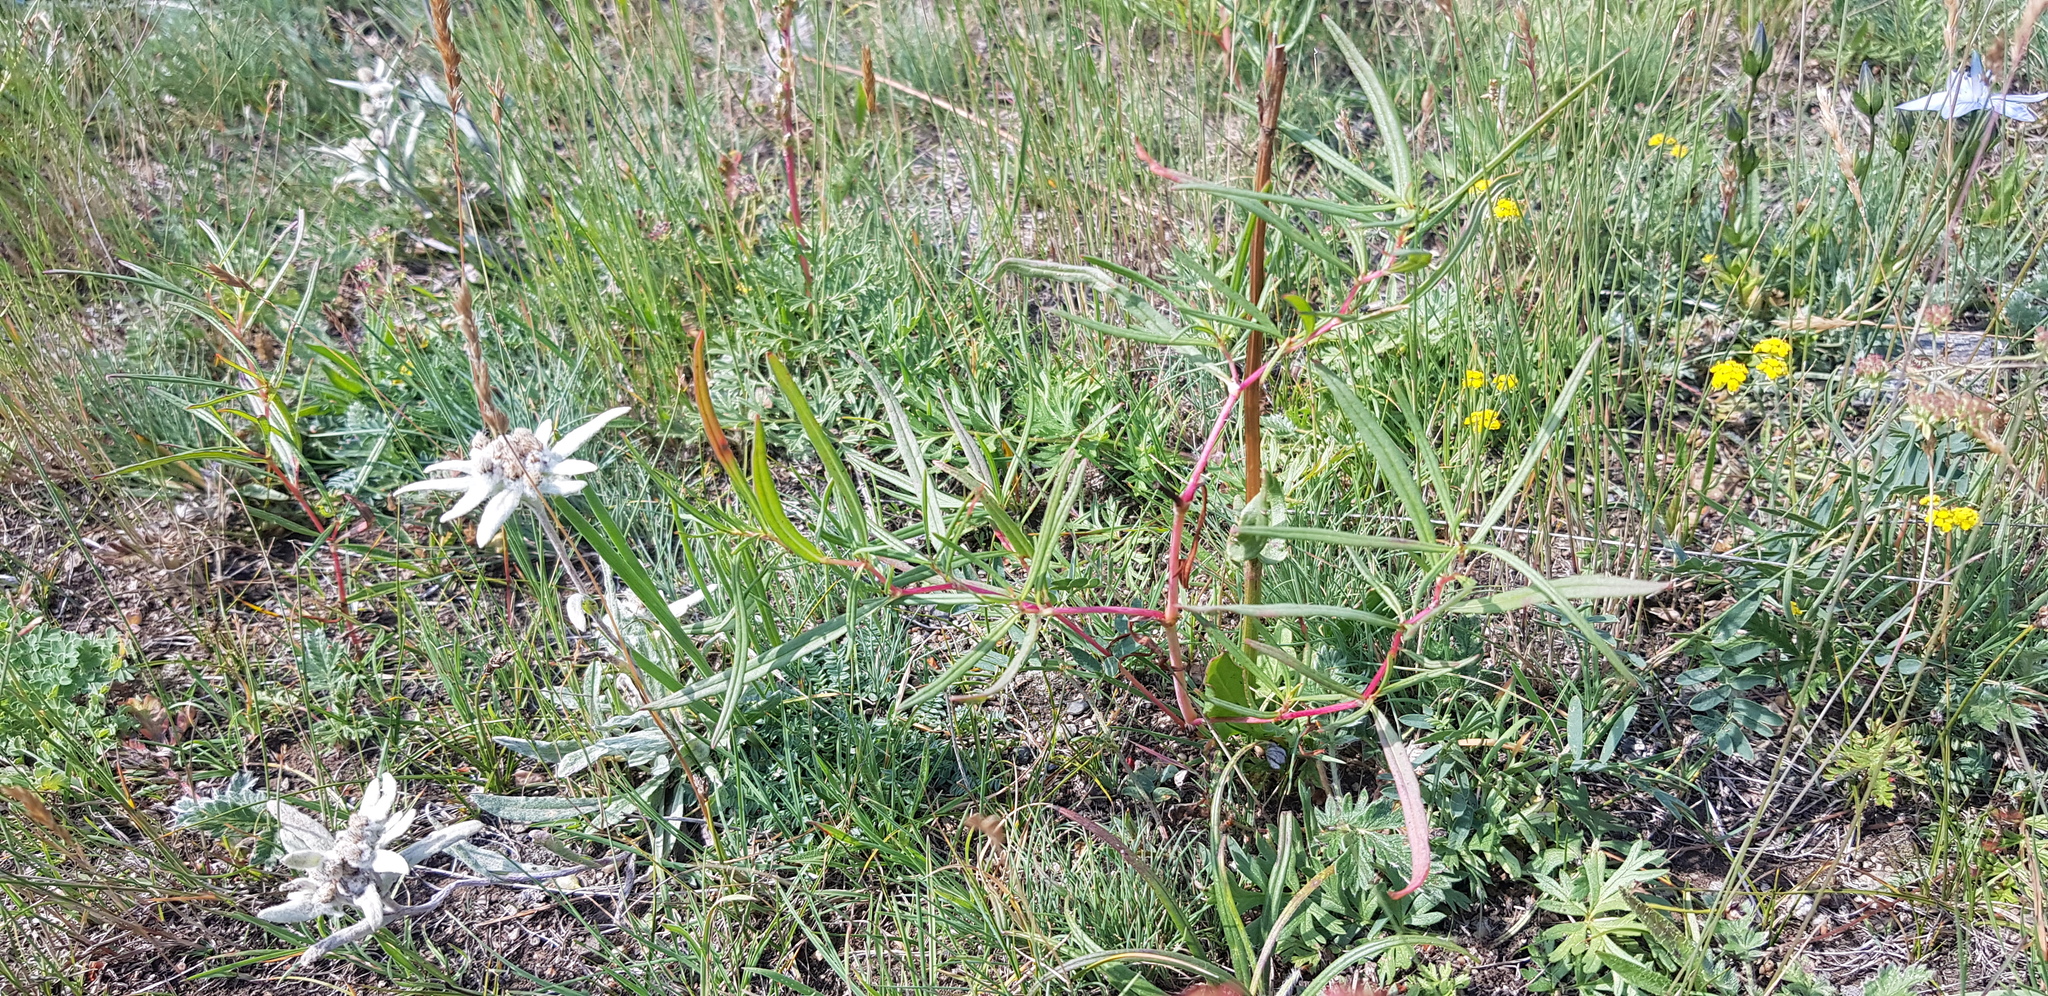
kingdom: Plantae
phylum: Tracheophyta
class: Magnoliopsida
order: Caryophyllales
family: Polygonaceae
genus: Persicaria
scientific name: Persicaria angustifolia
